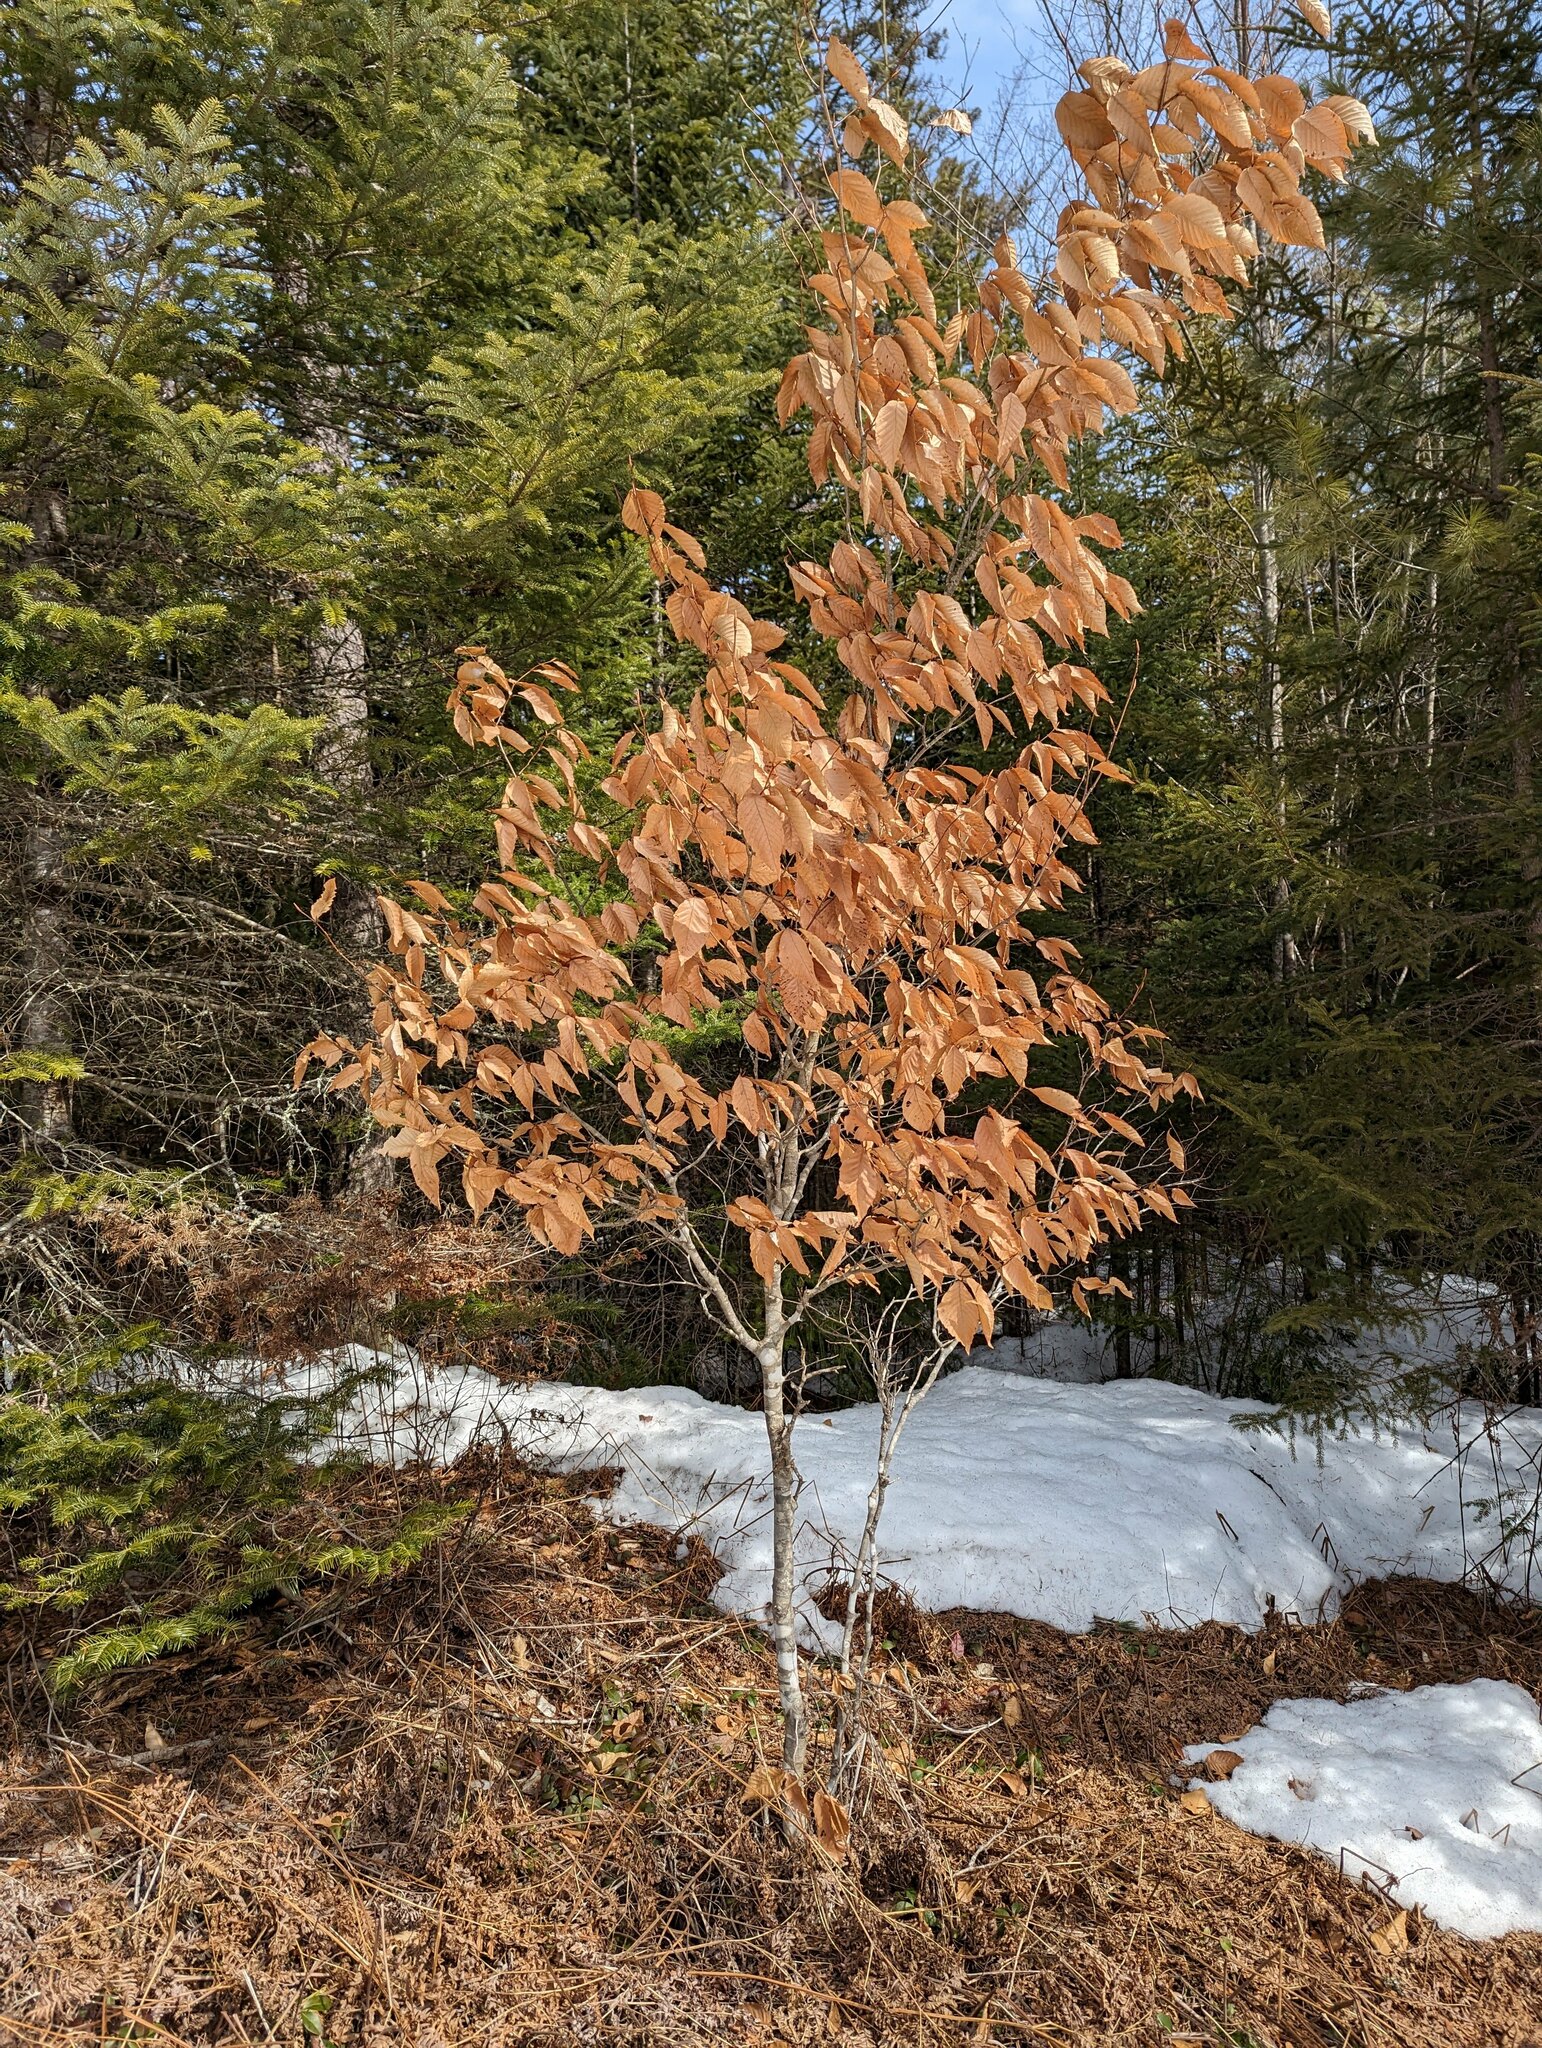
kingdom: Plantae
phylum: Tracheophyta
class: Magnoliopsida
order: Fagales
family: Fagaceae
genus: Fagus
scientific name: Fagus grandifolia
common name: American beech
